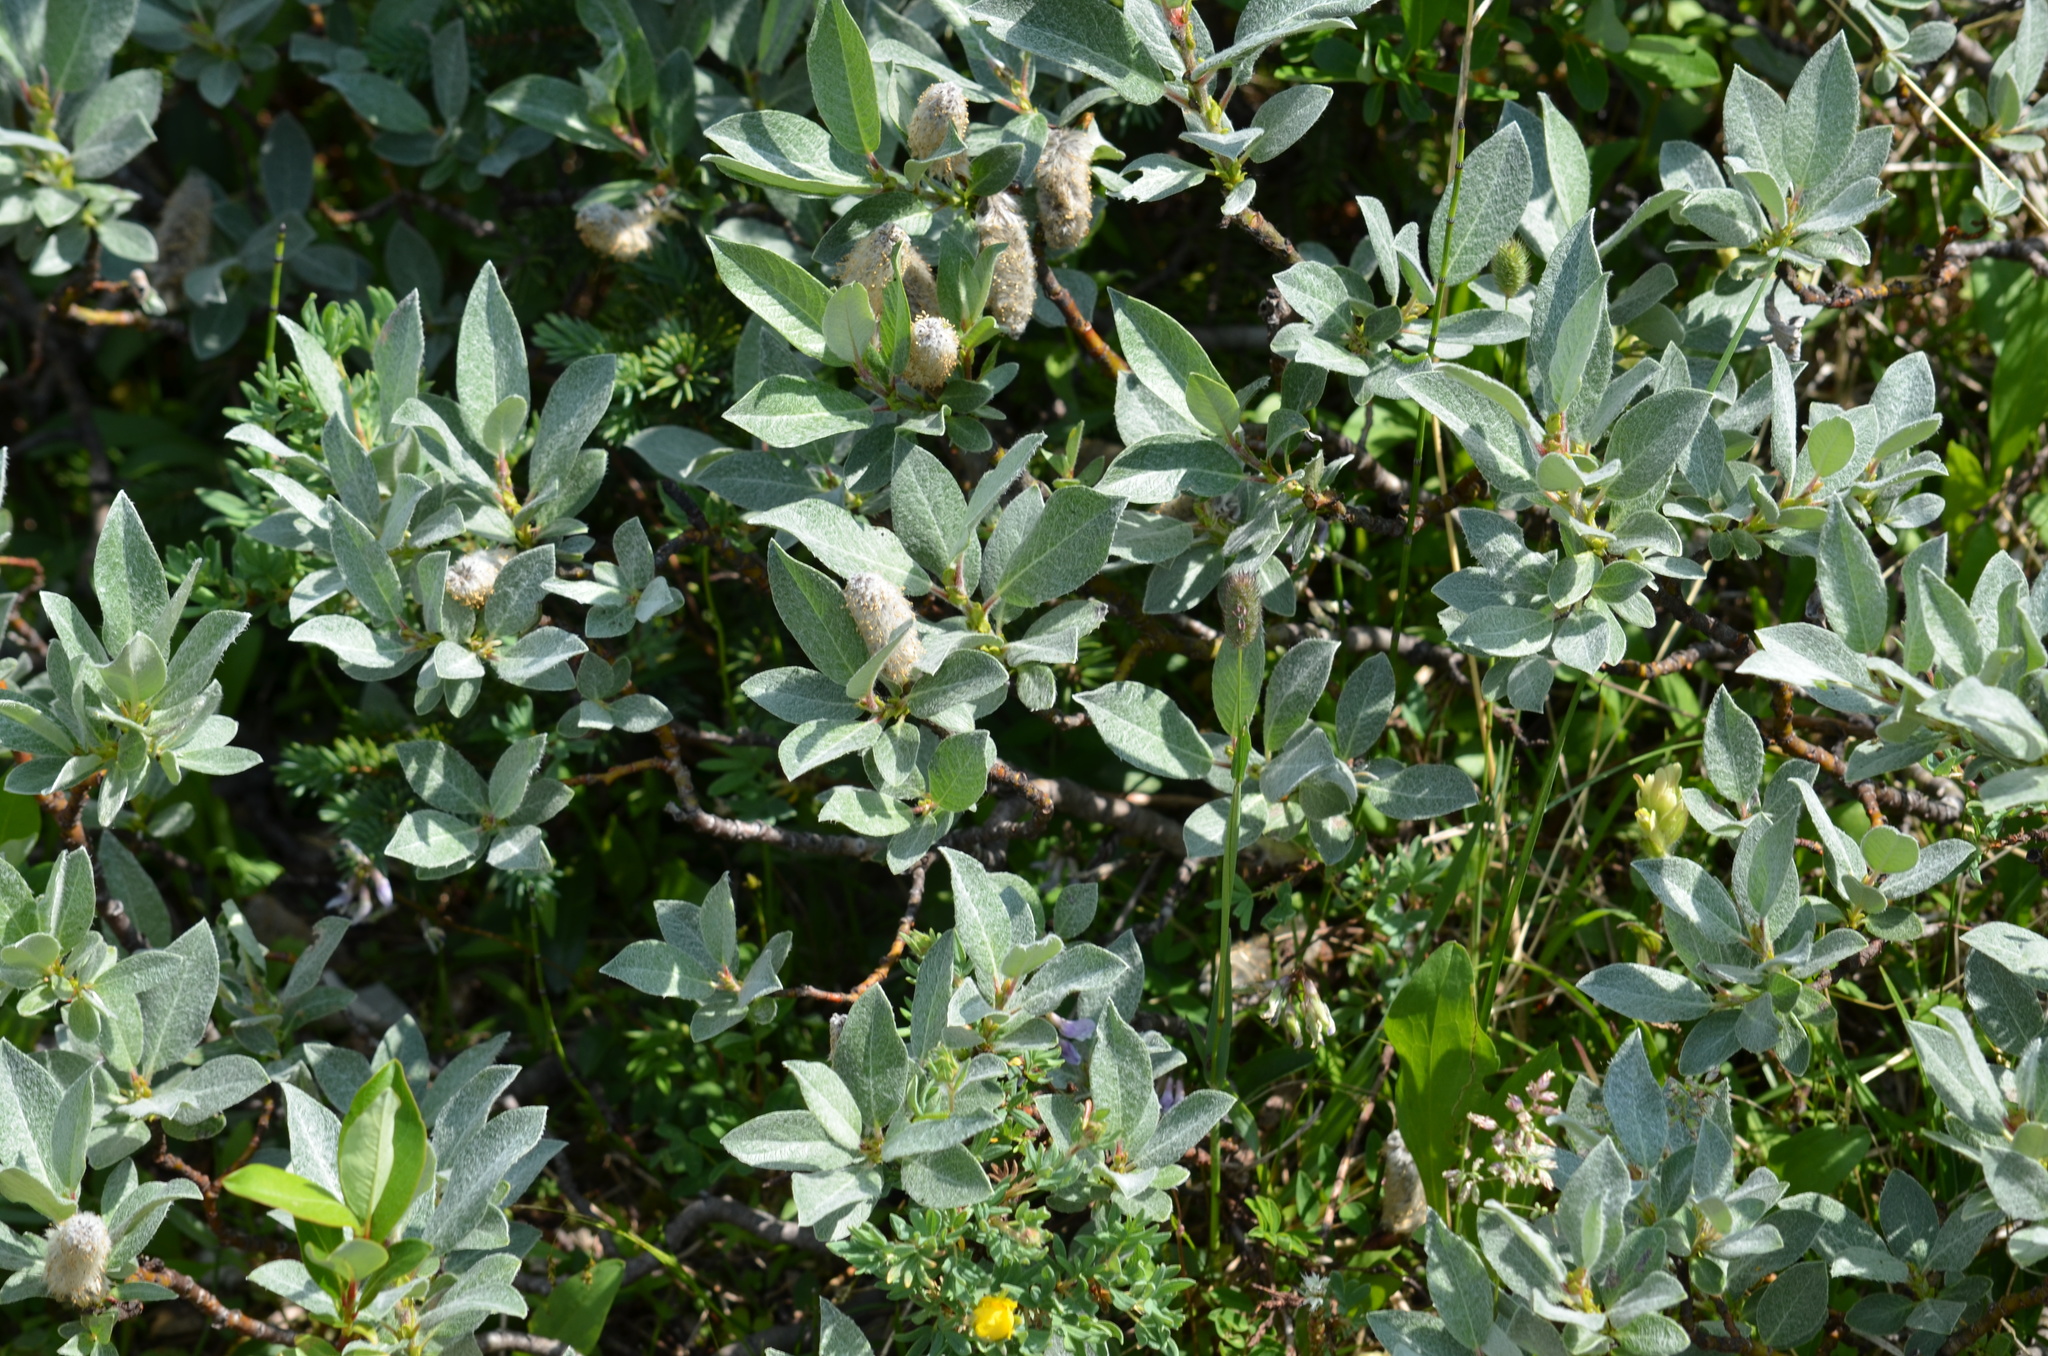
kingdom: Plantae
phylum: Tracheophyta
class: Magnoliopsida
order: Malpighiales
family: Salicaceae
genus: Salix
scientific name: Salix barrattiana
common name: Barratt's willow
